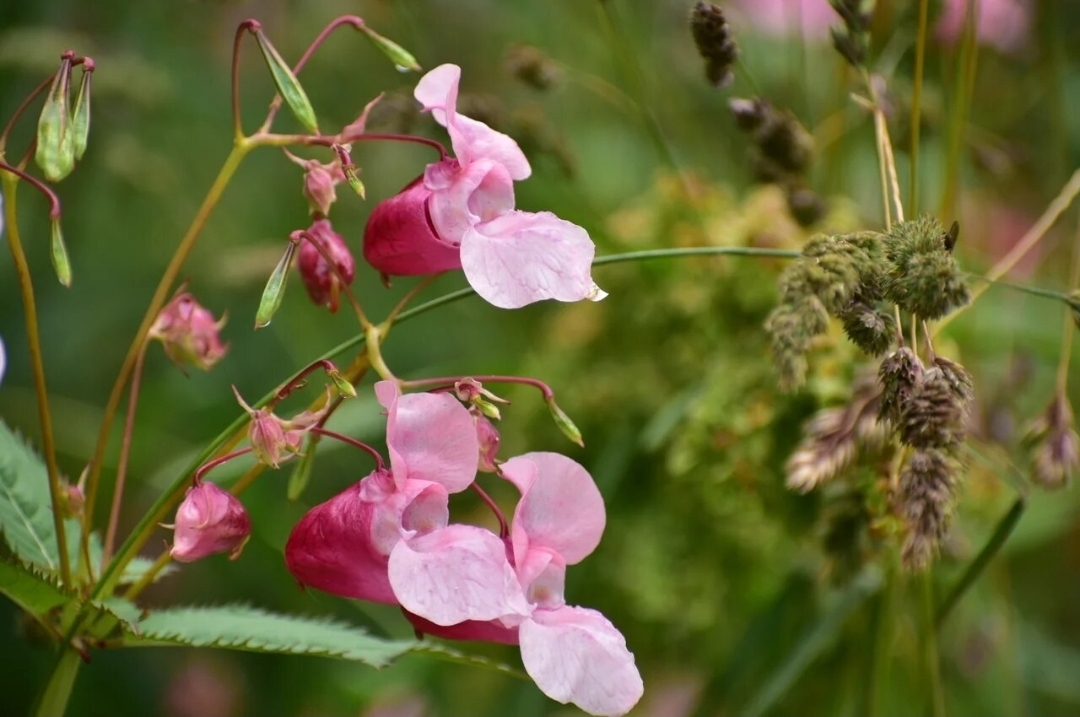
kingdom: Plantae
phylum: Tracheophyta
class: Magnoliopsida
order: Ericales
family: Balsaminaceae
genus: Impatiens
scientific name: Impatiens glandulifera
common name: Himalayan balsam
